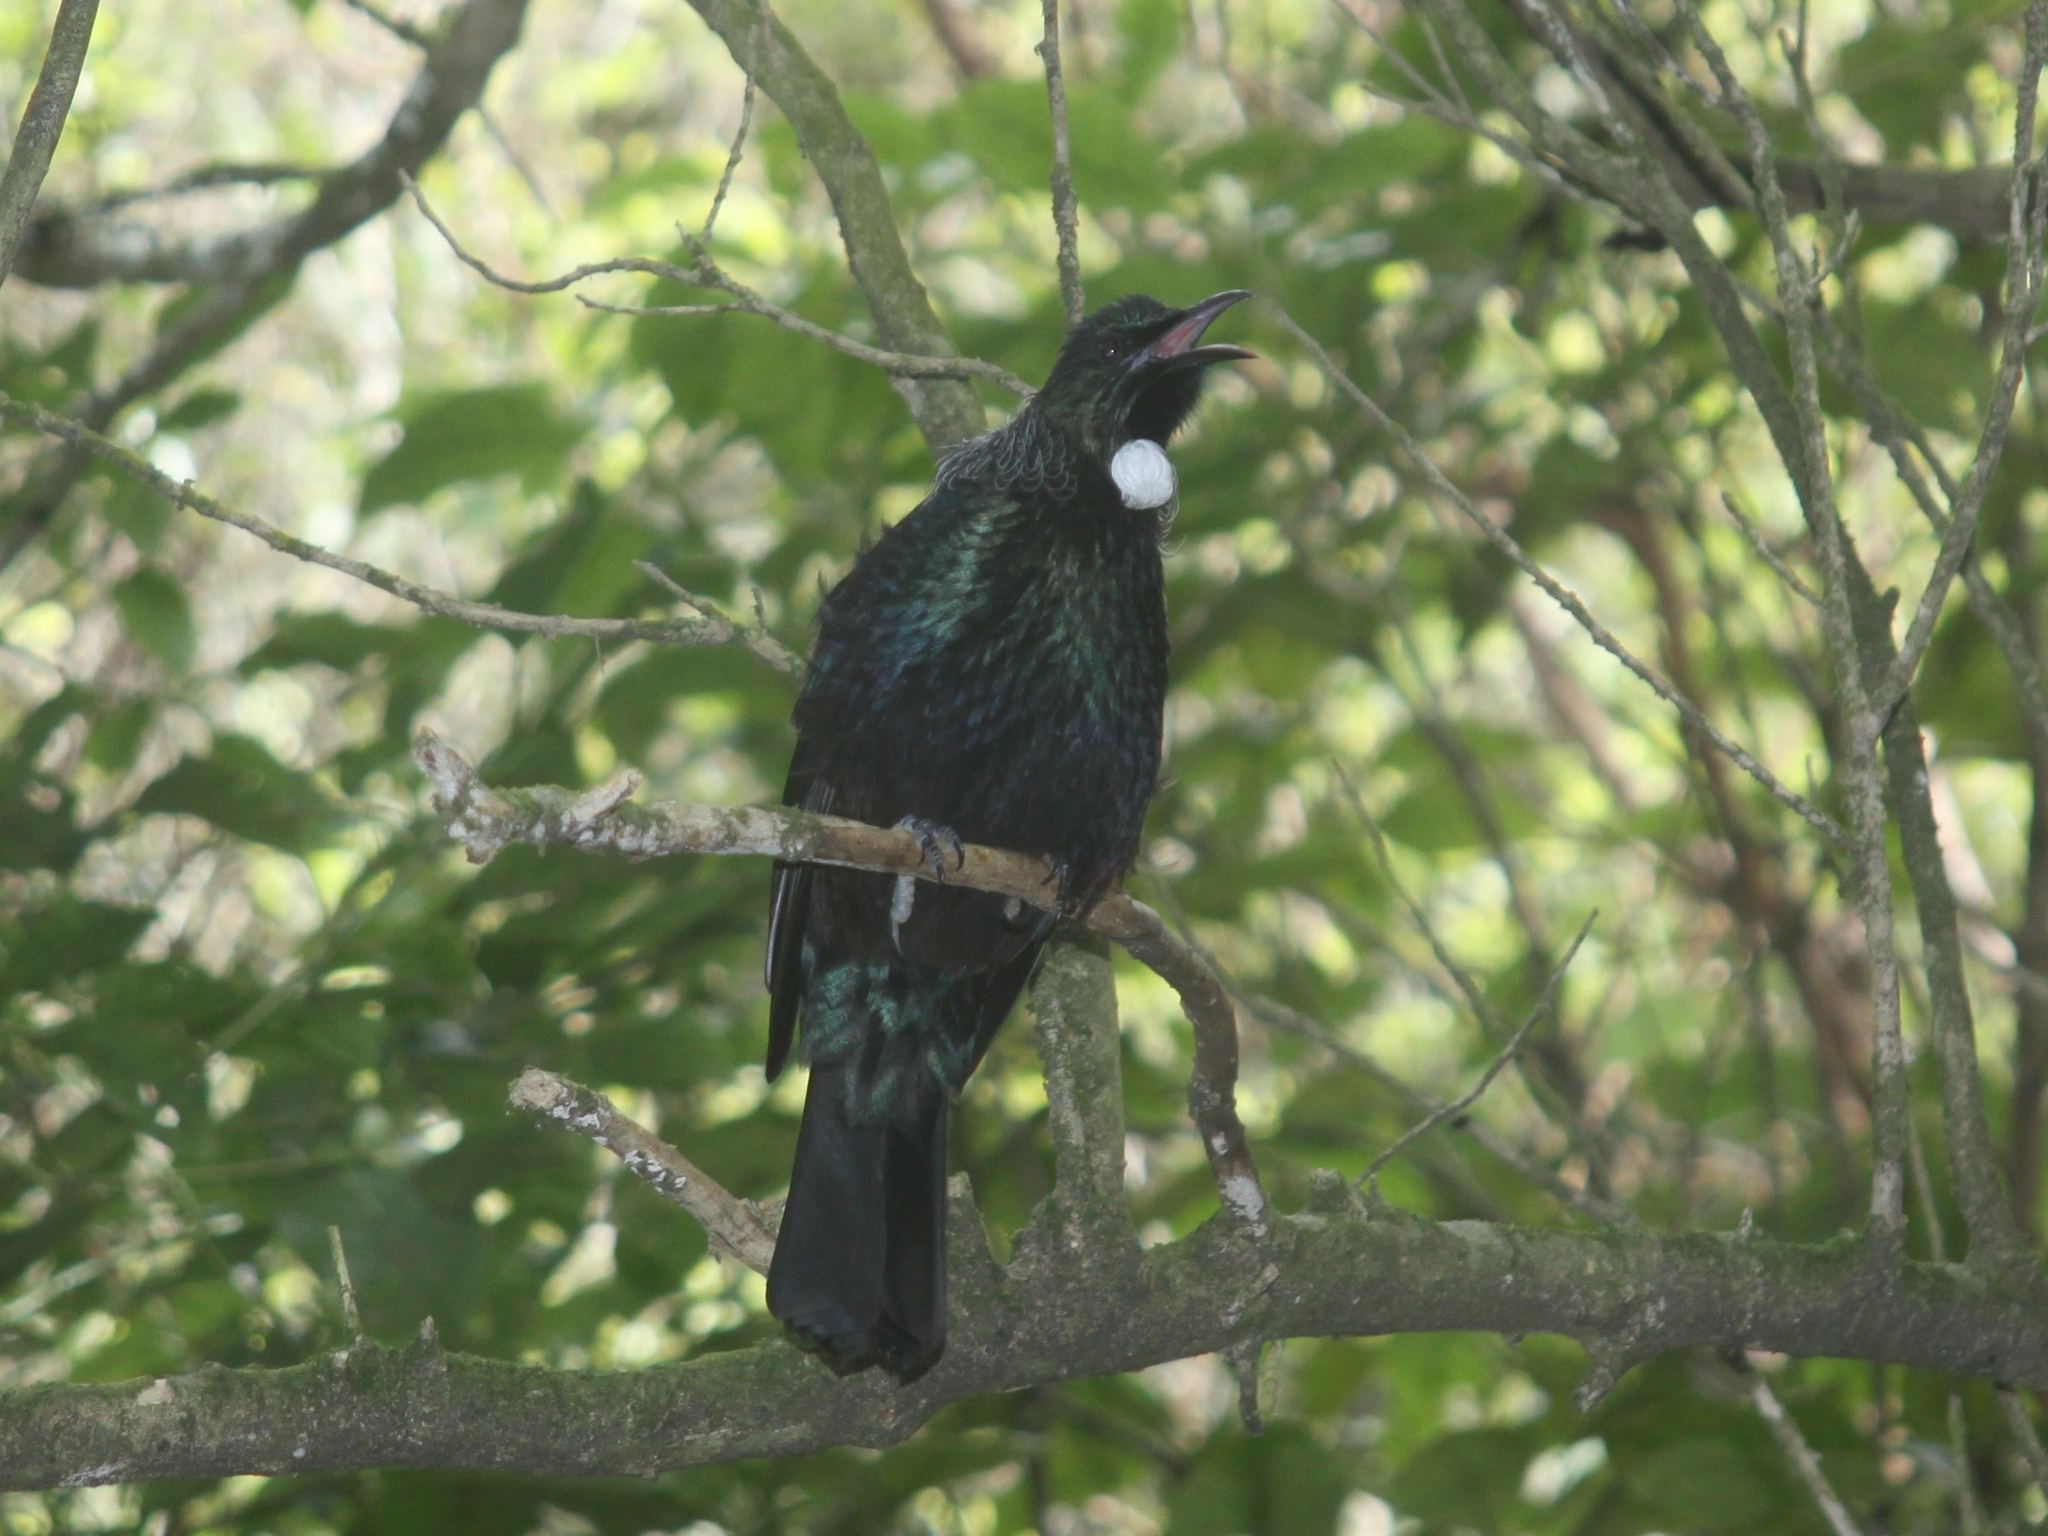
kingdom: Animalia
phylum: Chordata
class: Aves
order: Passeriformes
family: Meliphagidae
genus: Prosthemadera
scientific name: Prosthemadera novaeseelandiae
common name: Tui
